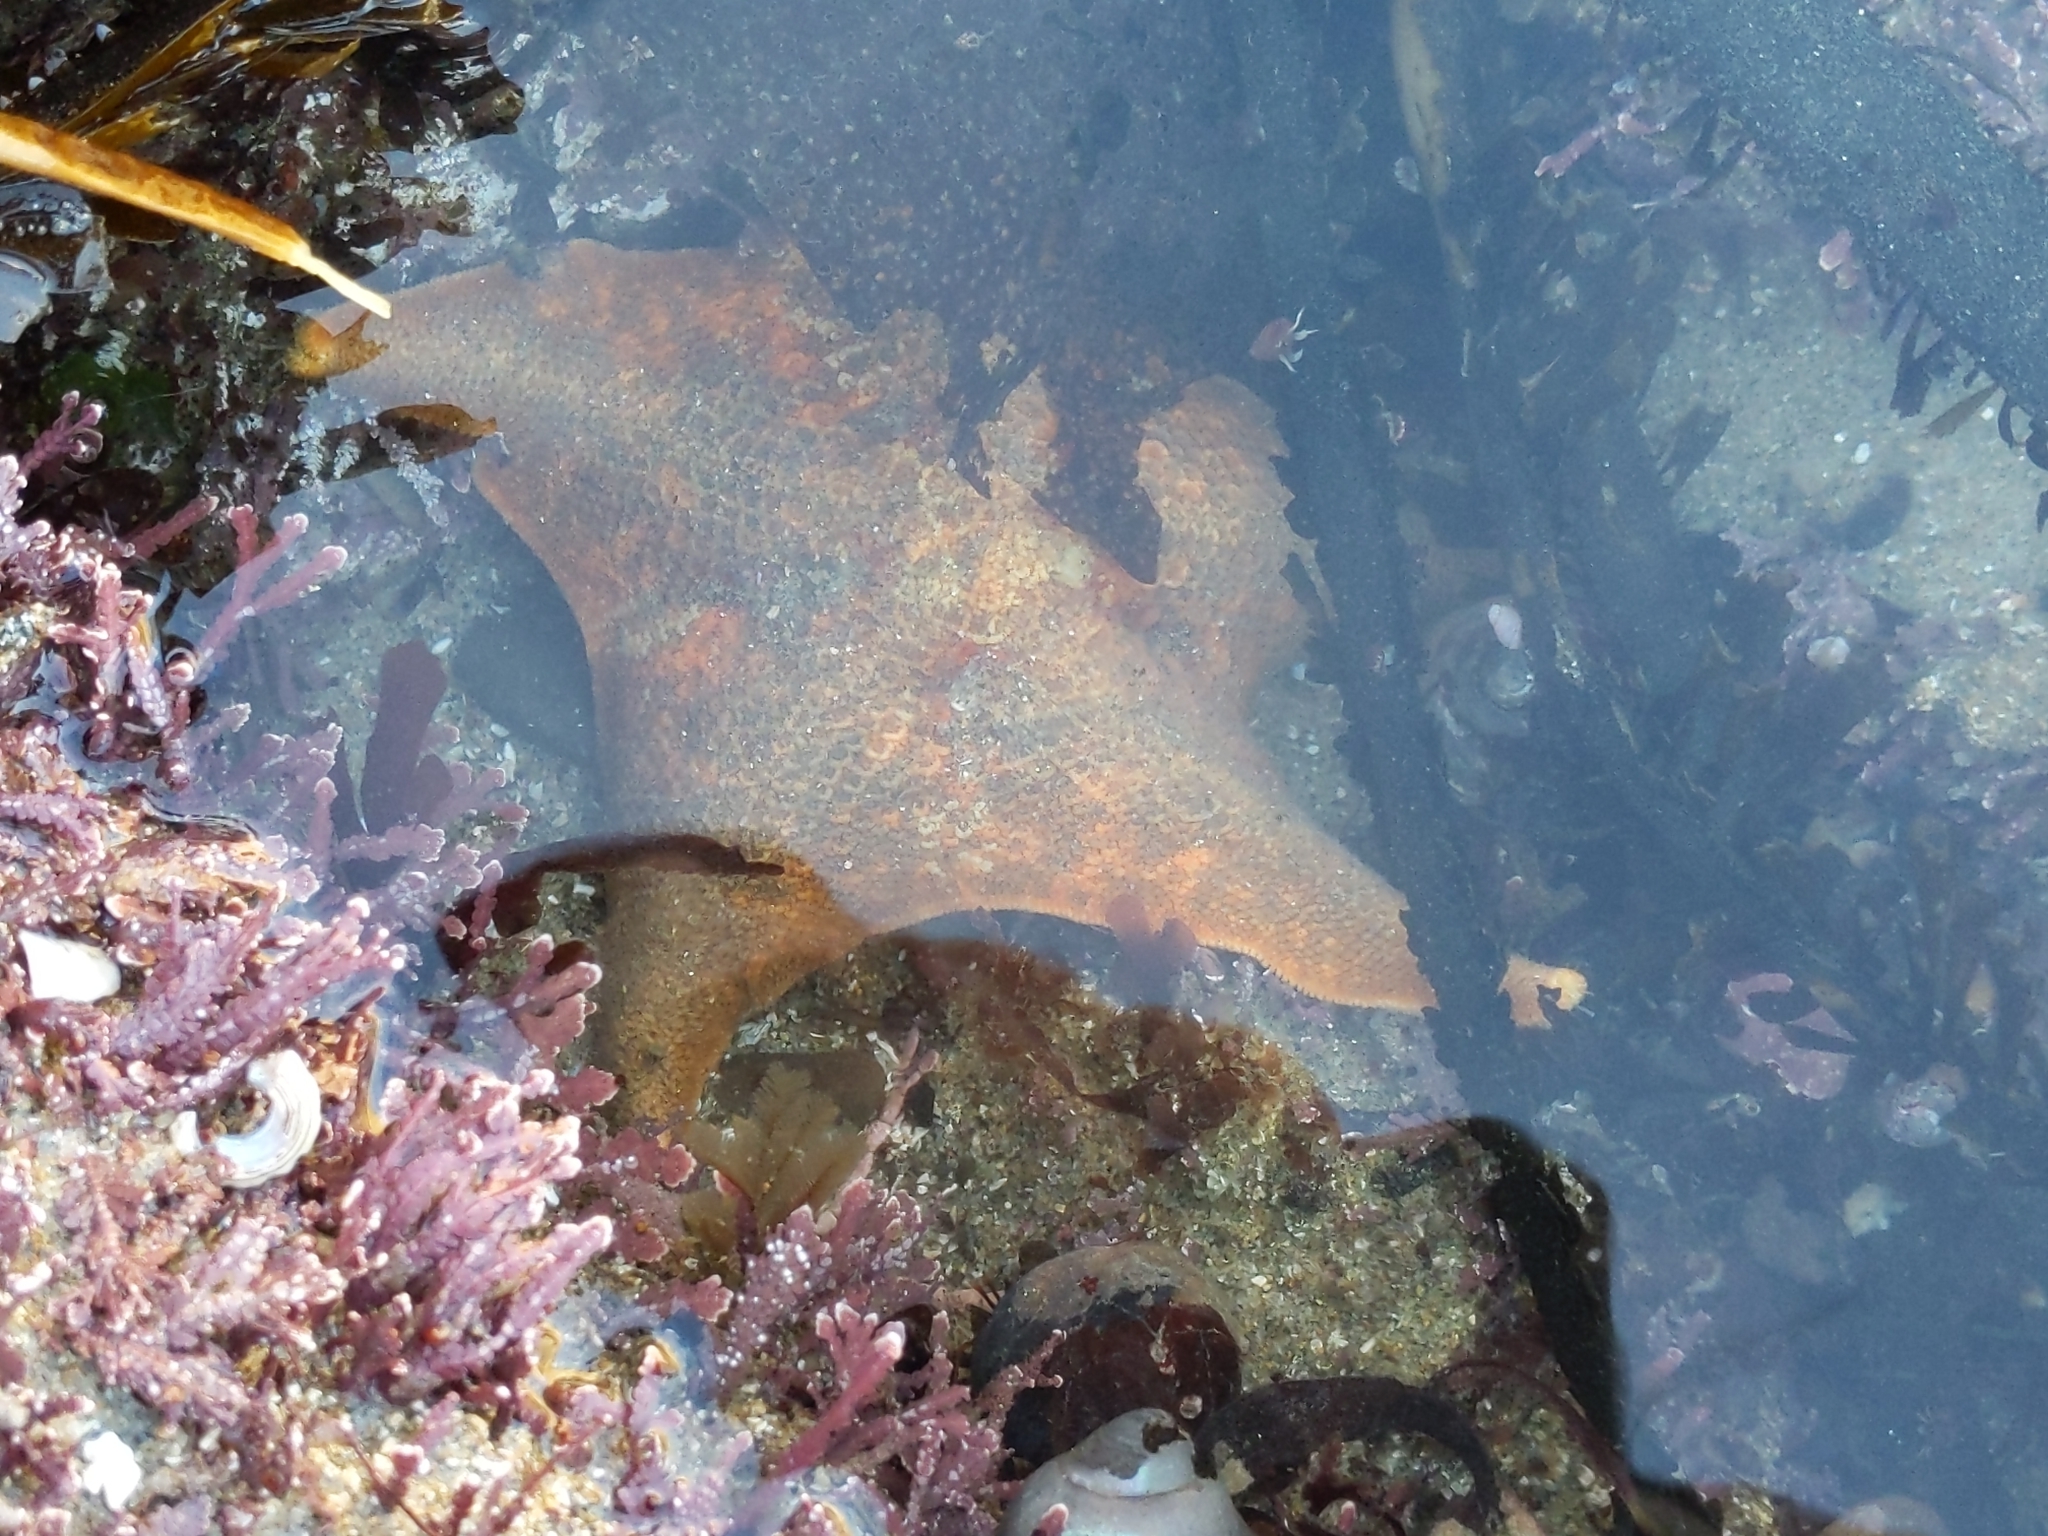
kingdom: Animalia
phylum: Echinodermata
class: Asteroidea
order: Valvatida
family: Asterinidae
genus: Patiria
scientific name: Patiria miniata
